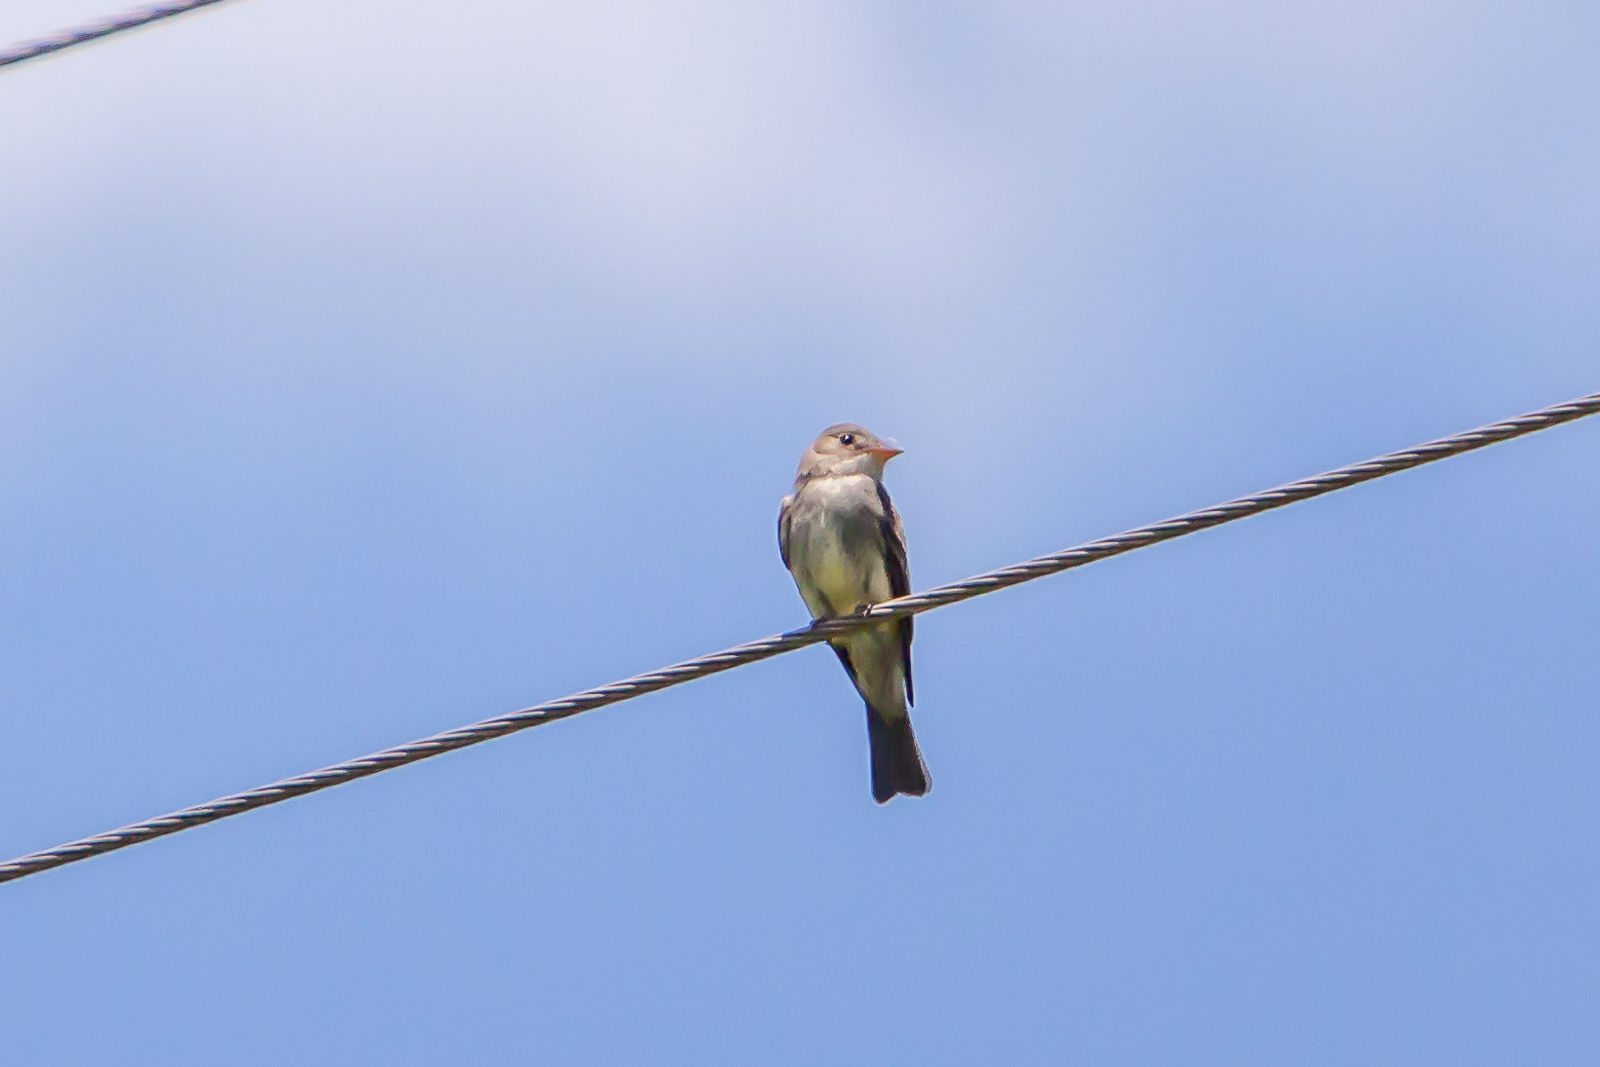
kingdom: Animalia
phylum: Chordata
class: Aves
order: Passeriformes
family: Tyrannidae
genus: Contopus
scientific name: Contopus virens
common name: Eastern wood-pewee
